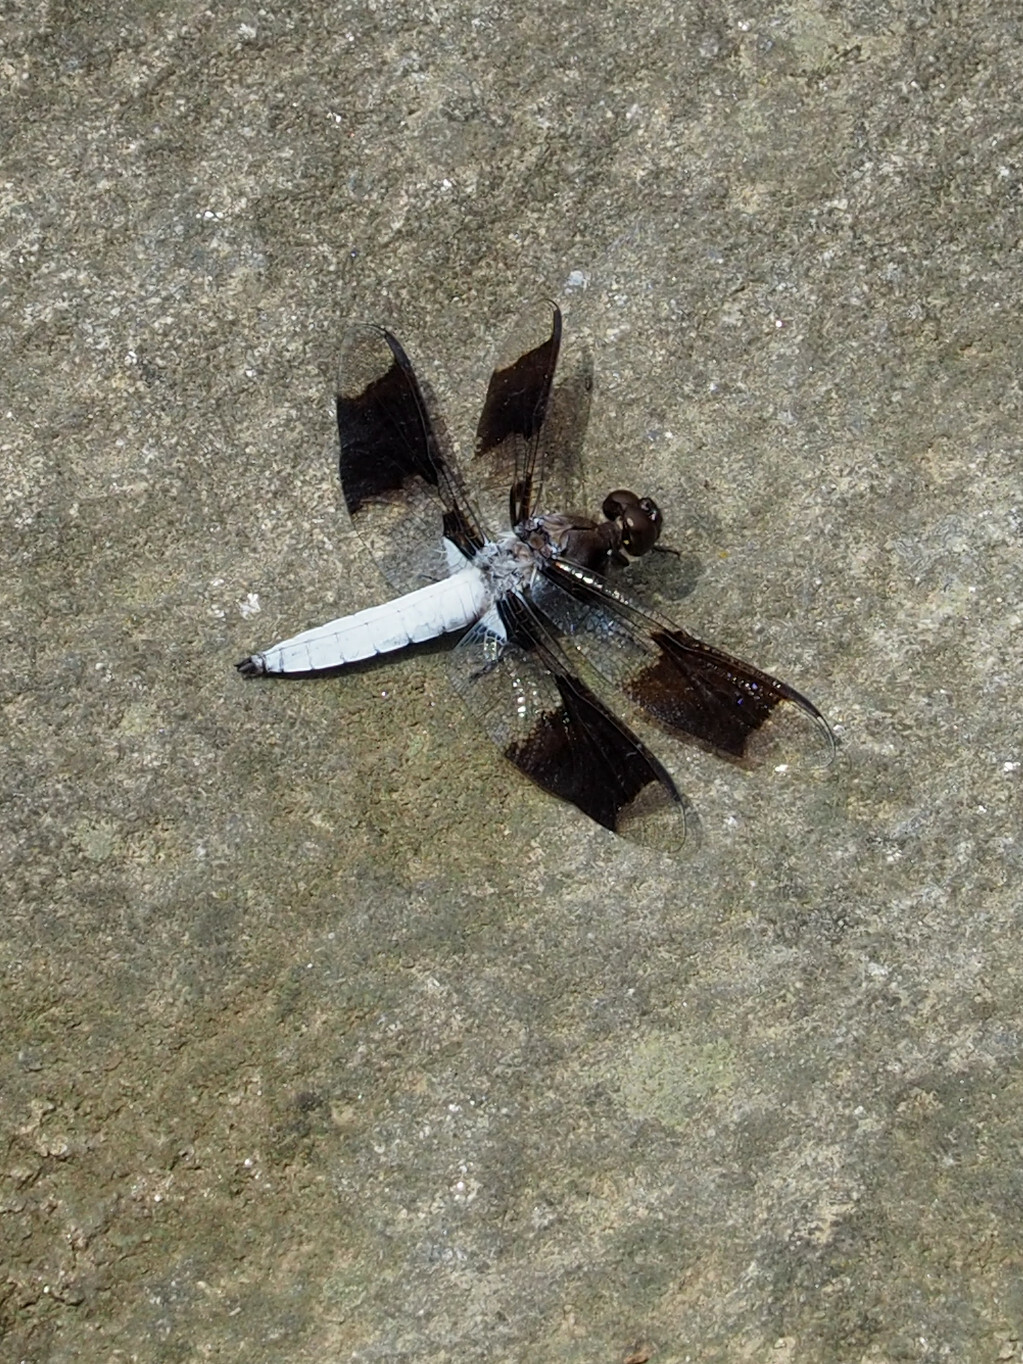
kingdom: Animalia
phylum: Arthropoda
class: Insecta
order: Odonata
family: Libellulidae
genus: Plathemis
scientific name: Plathemis lydia
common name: Common whitetail
